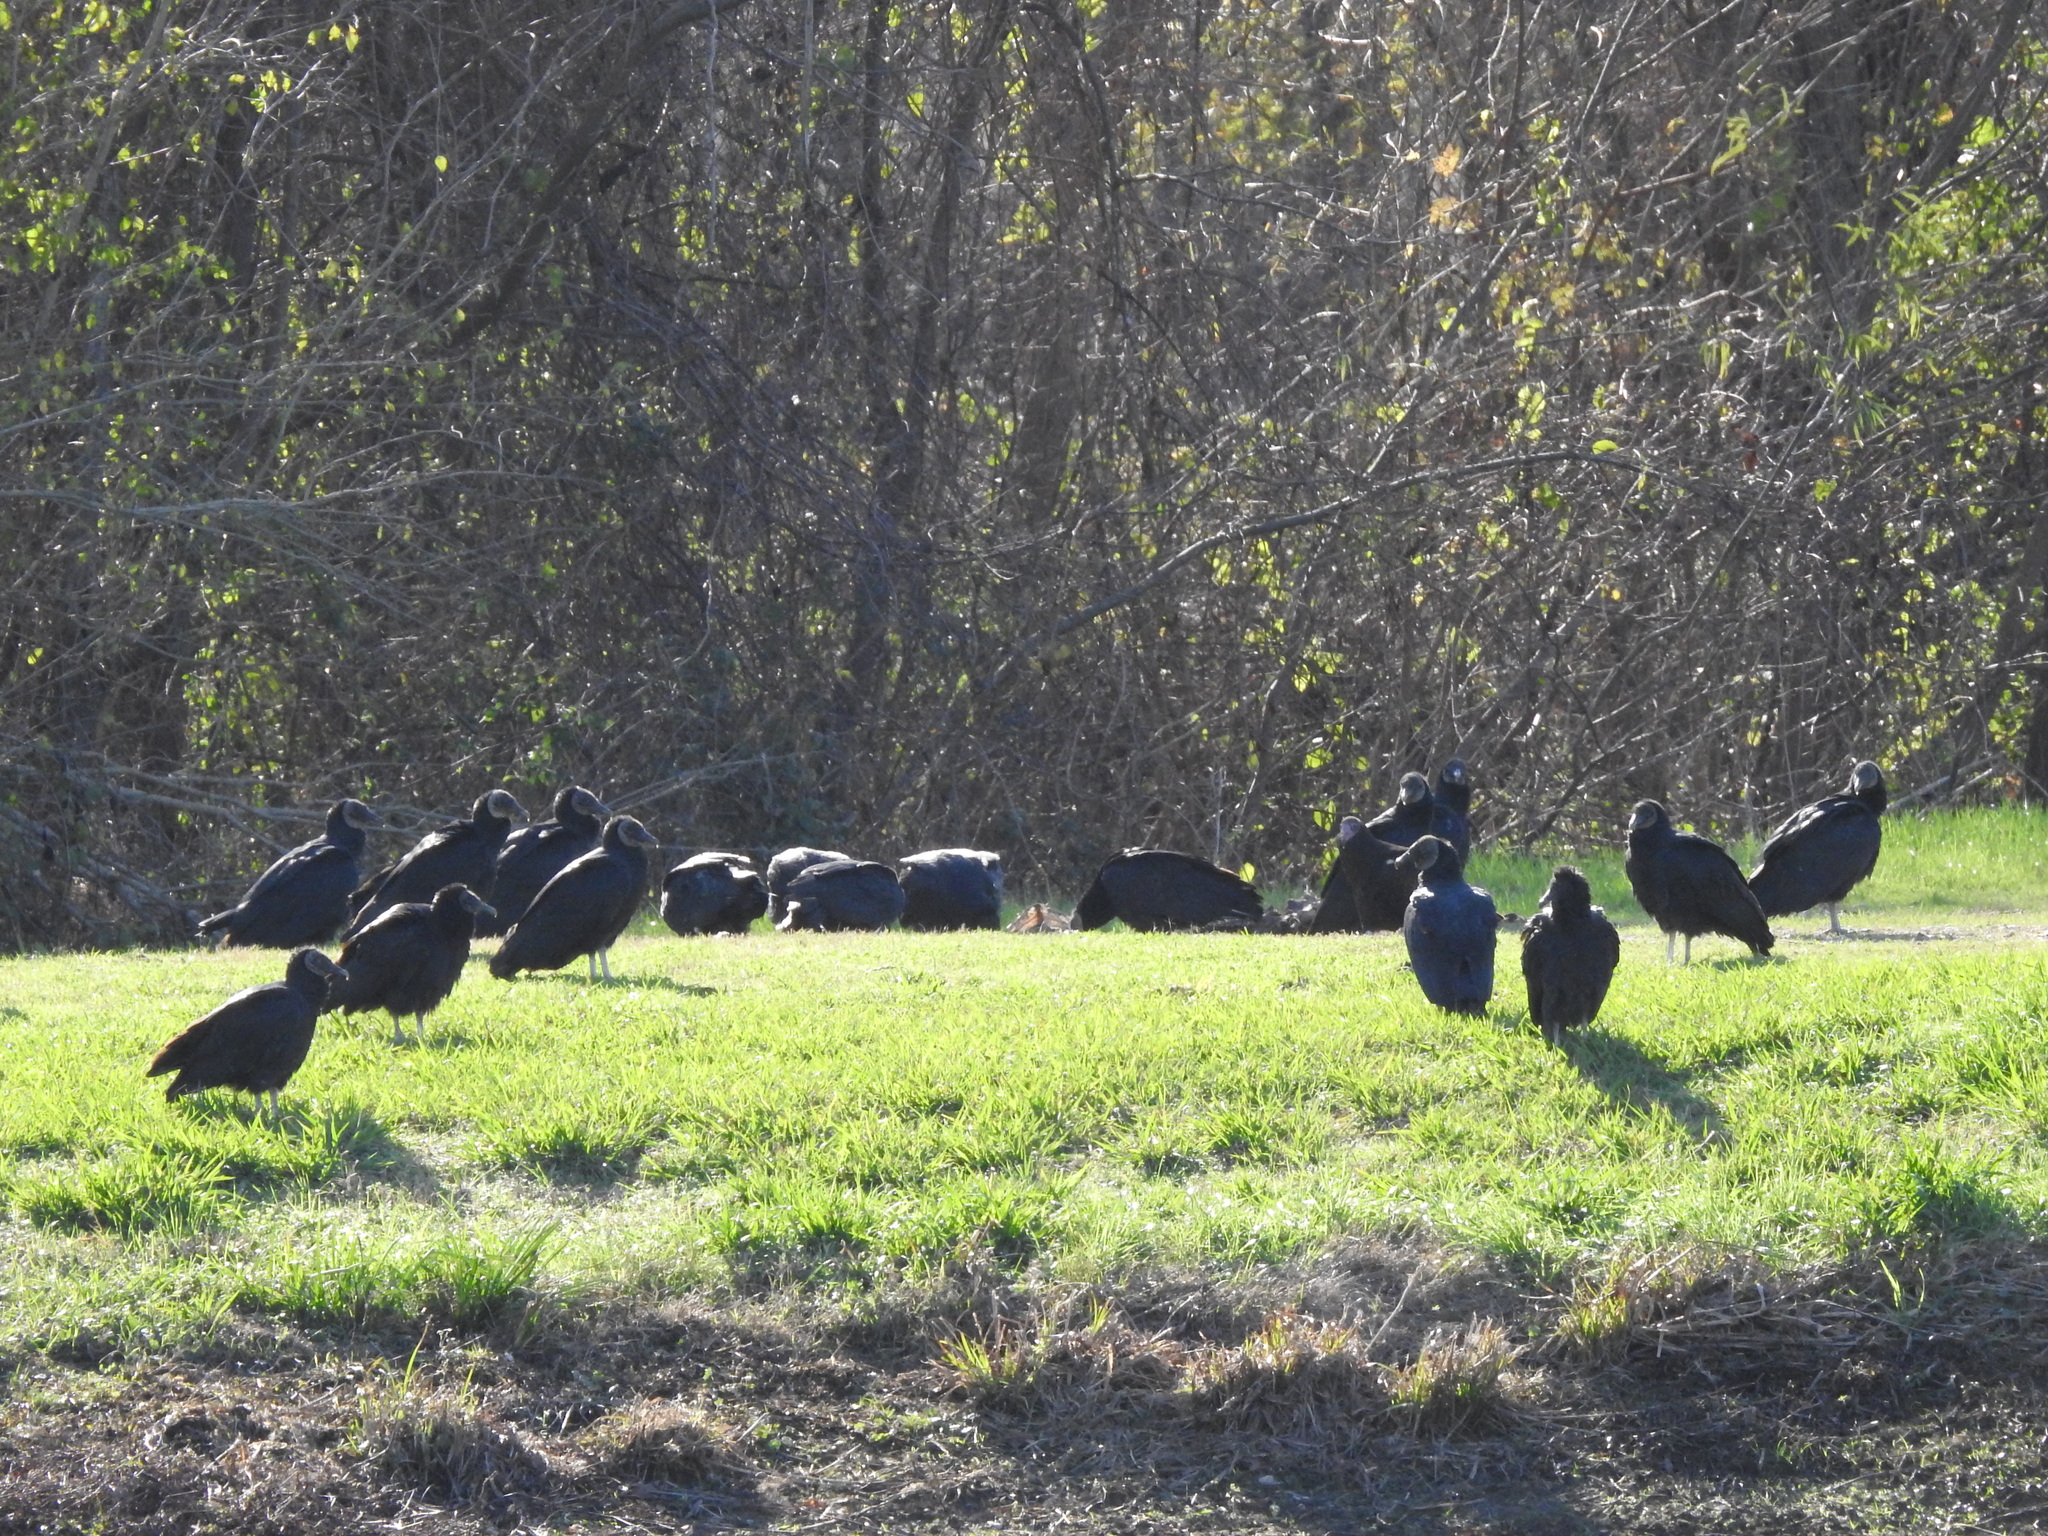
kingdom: Animalia
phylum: Chordata
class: Aves
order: Accipitriformes
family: Cathartidae
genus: Coragyps
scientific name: Coragyps atratus
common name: Black vulture
